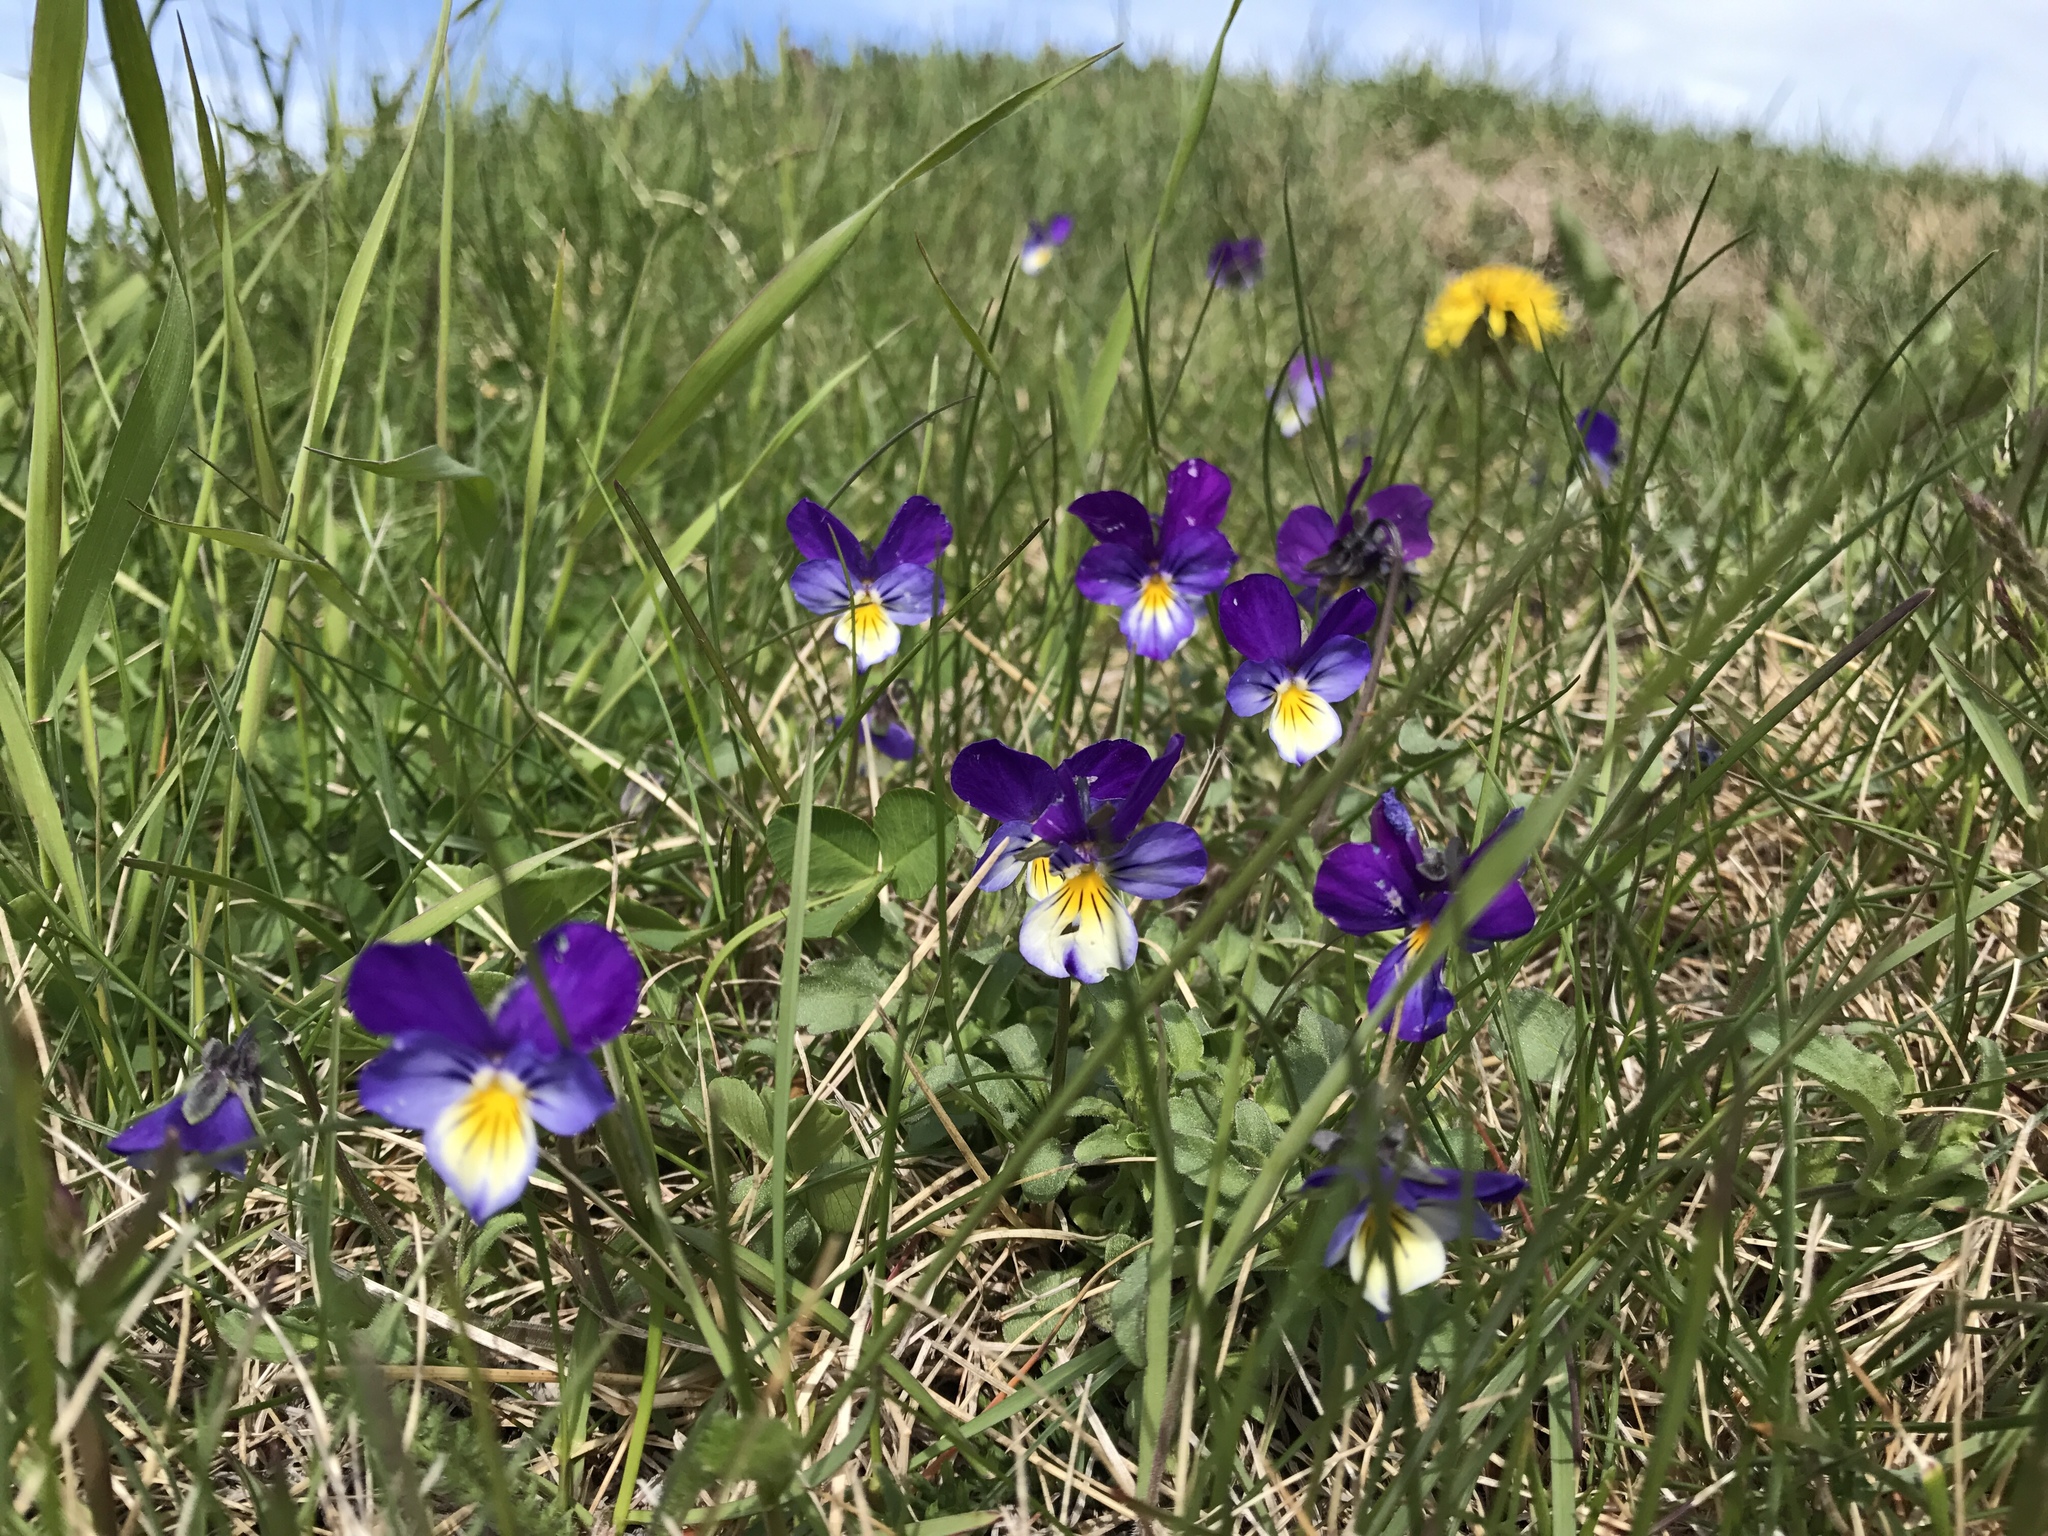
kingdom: Plantae
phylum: Tracheophyta
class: Magnoliopsida
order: Malpighiales
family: Violaceae
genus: Viola
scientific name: Viola tricolor
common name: Pansy
